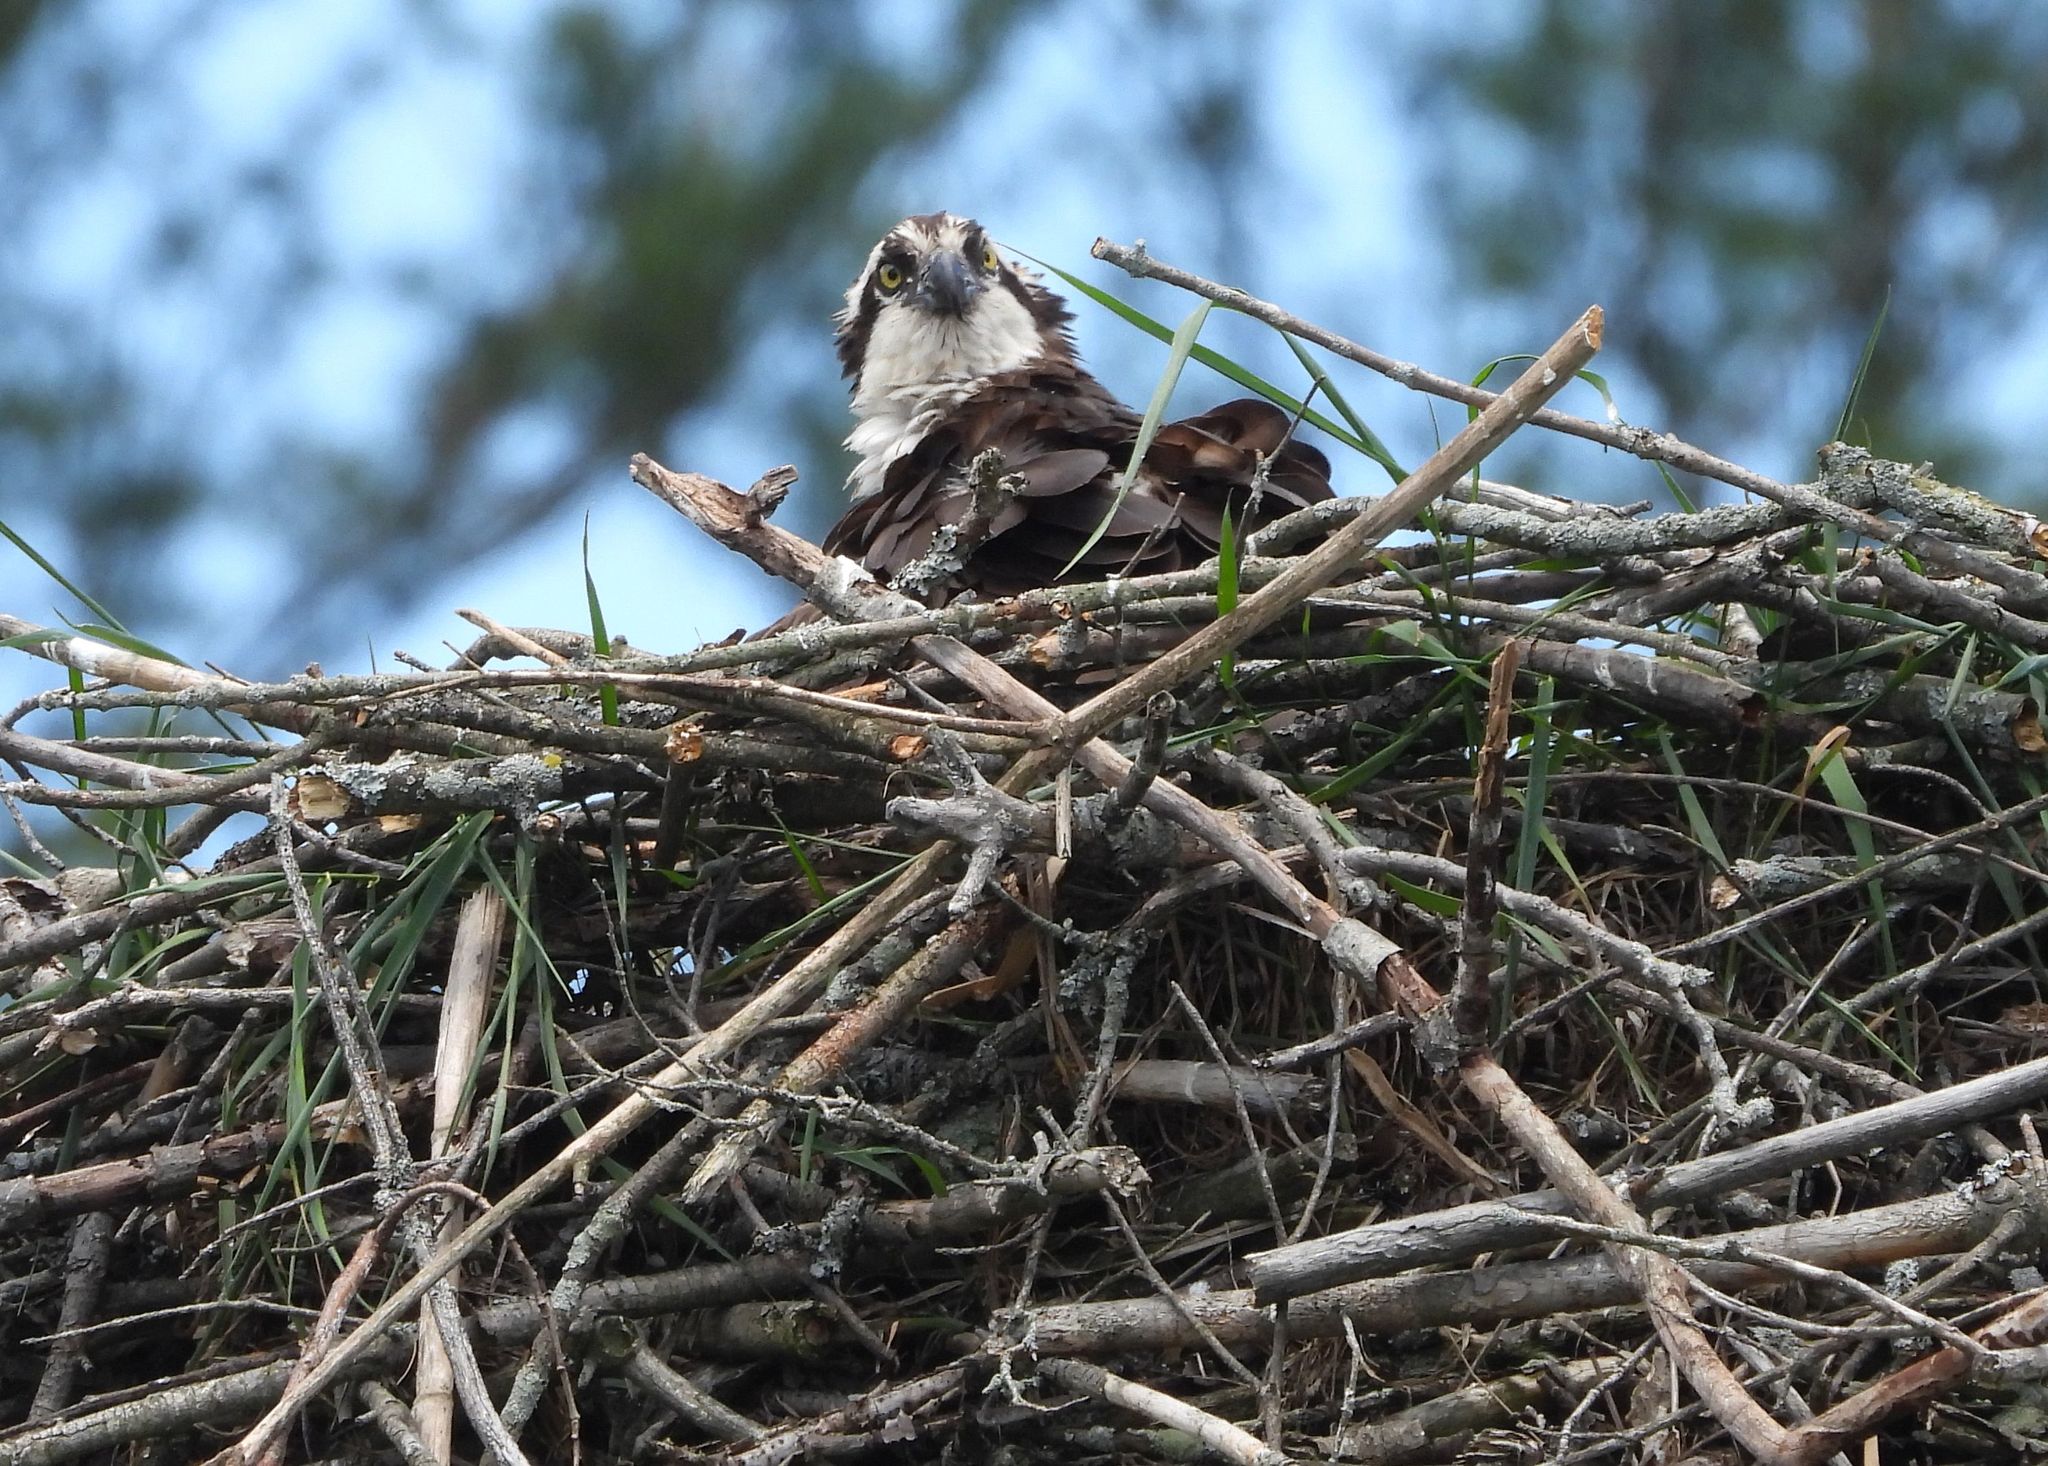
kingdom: Animalia
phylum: Chordata
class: Aves
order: Accipitriformes
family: Pandionidae
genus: Pandion
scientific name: Pandion haliaetus
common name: Osprey
